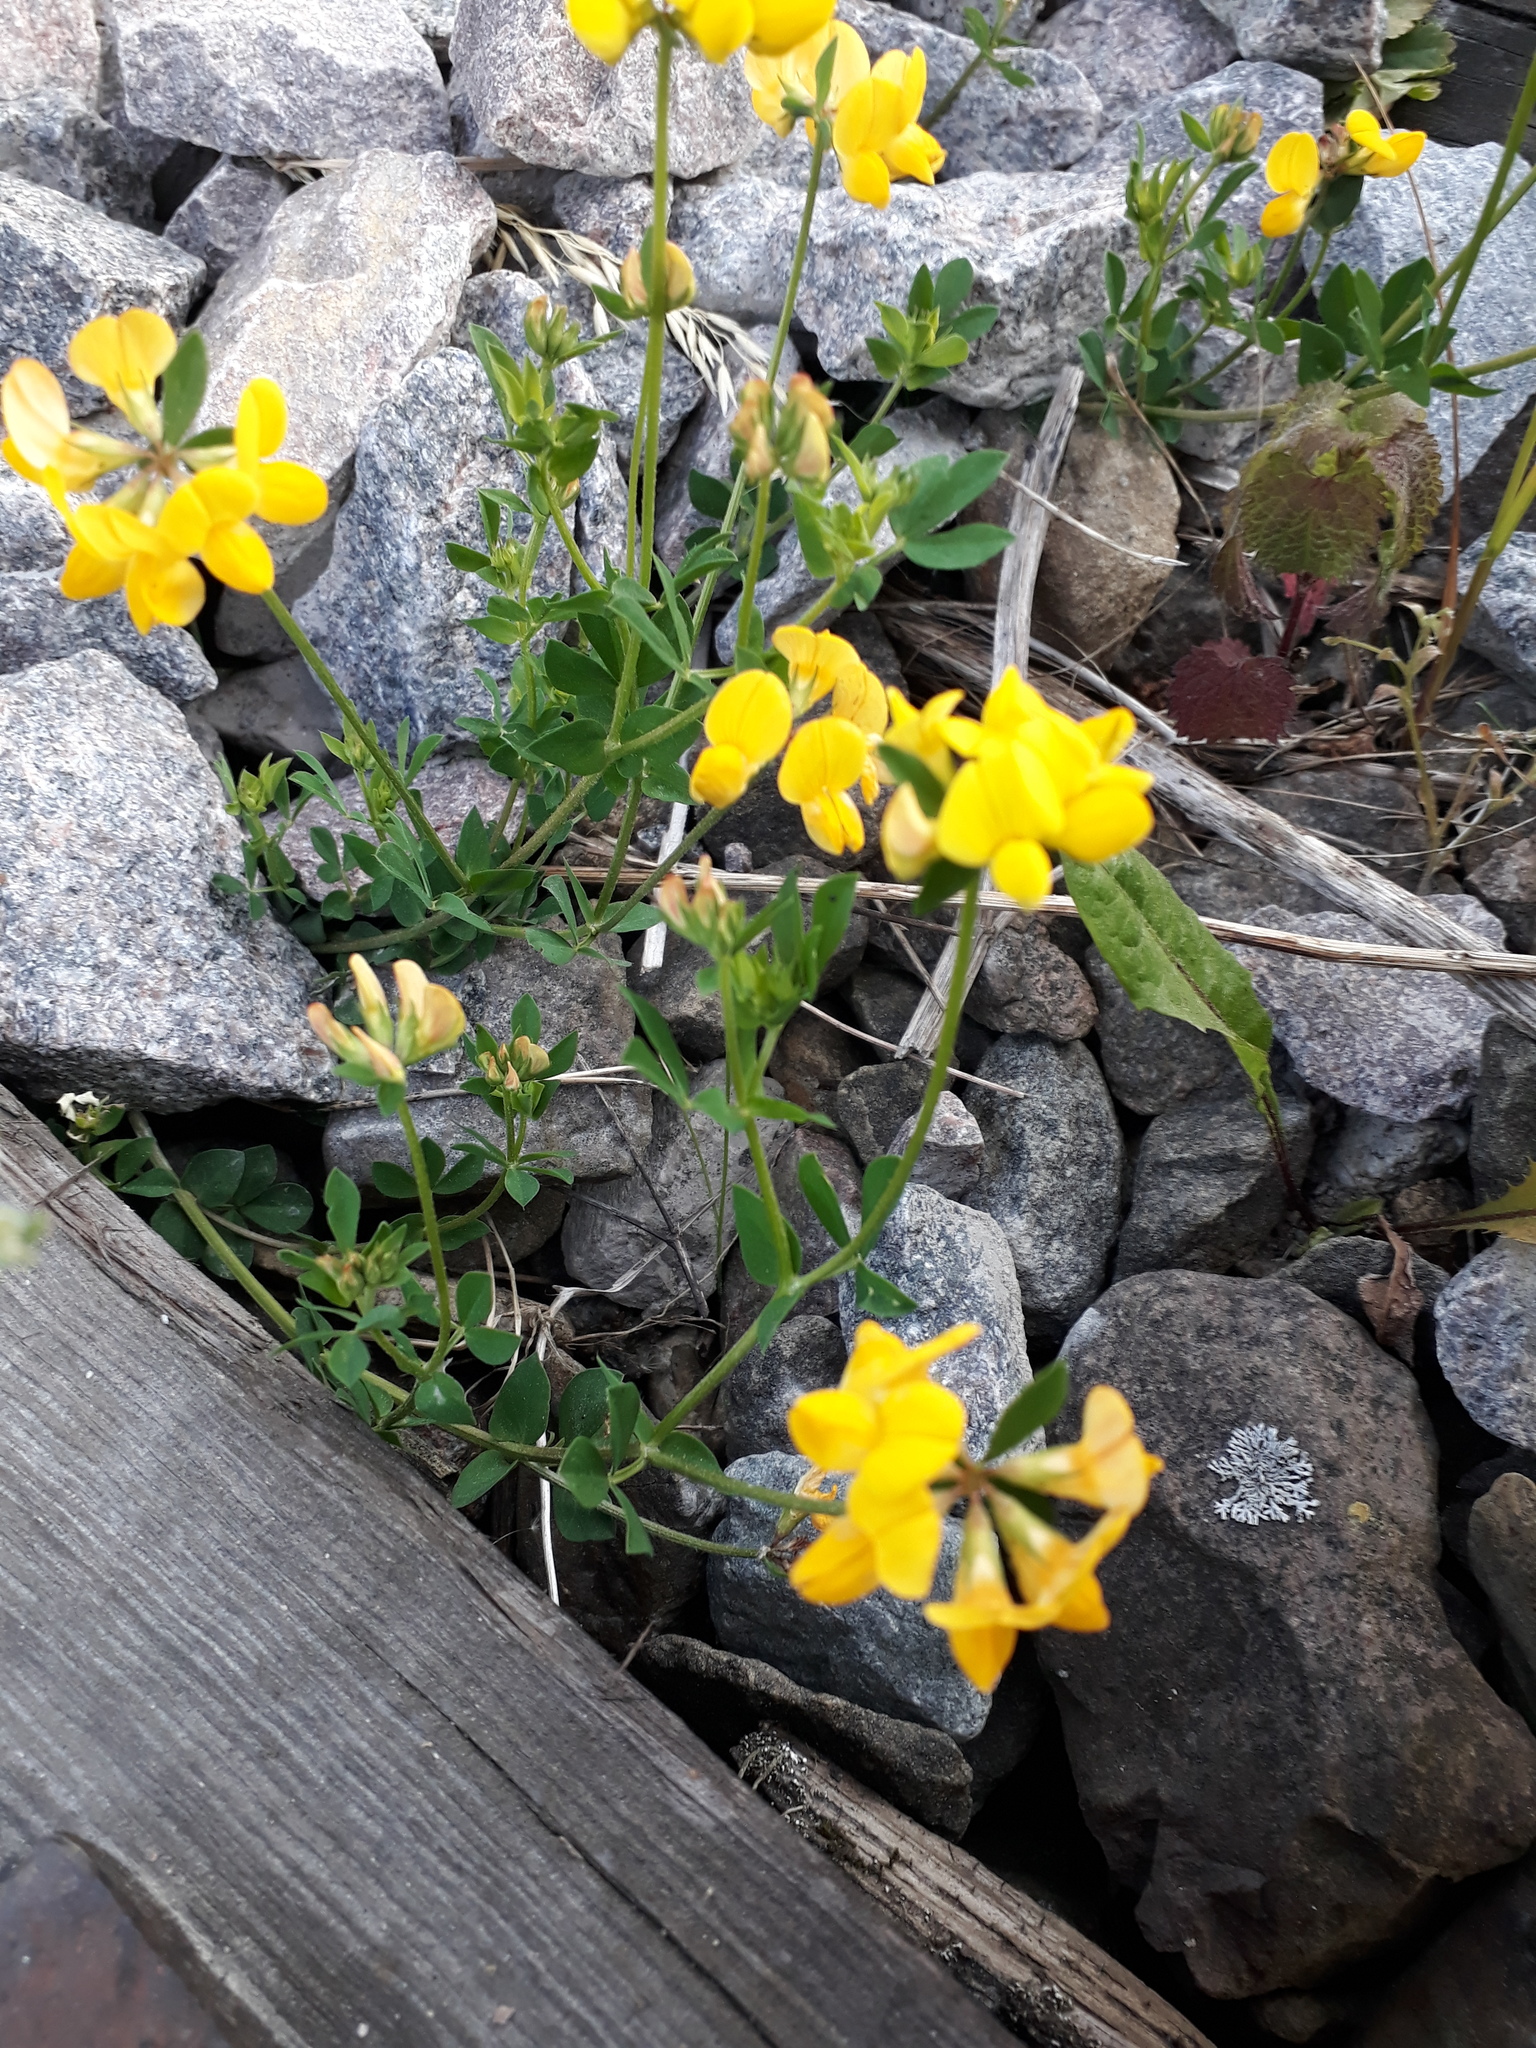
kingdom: Plantae
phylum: Tracheophyta
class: Magnoliopsida
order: Fabales
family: Fabaceae
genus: Lotus
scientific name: Lotus corniculatus
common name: Common bird's-foot-trefoil
